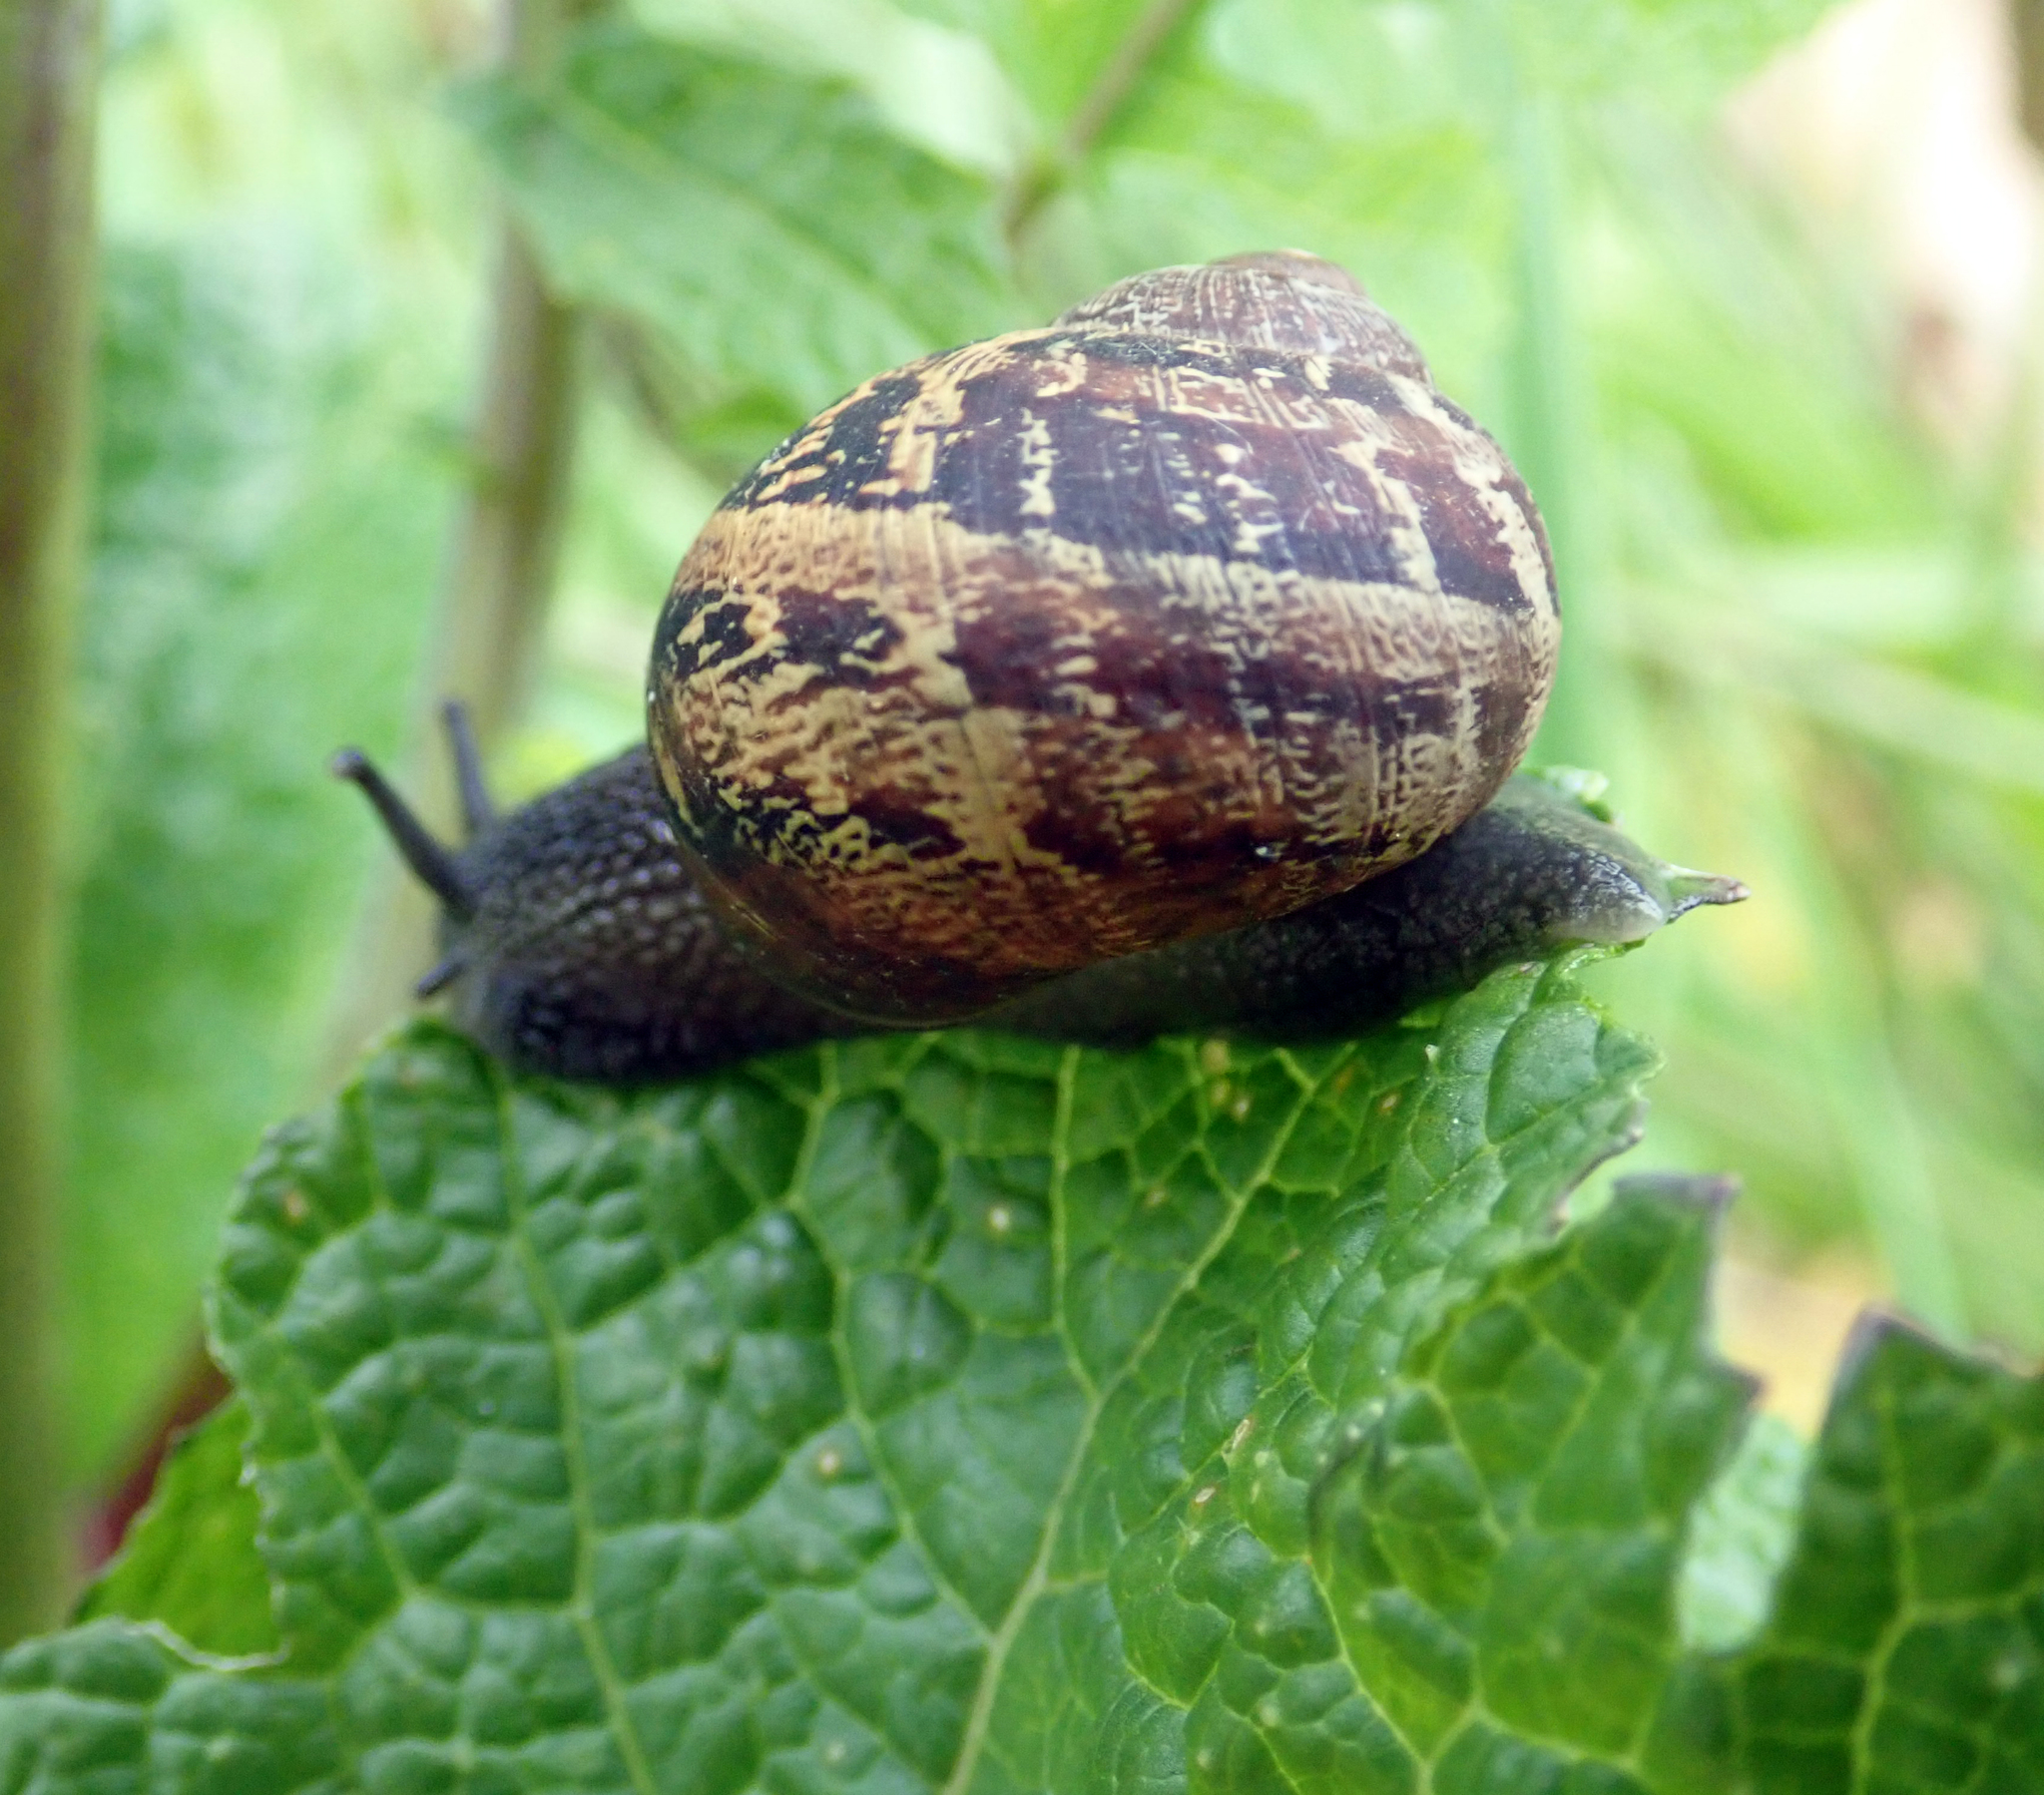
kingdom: Animalia
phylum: Mollusca
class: Gastropoda
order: Stylommatophora
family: Helicidae
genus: Cornu
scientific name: Cornu aspersum
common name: Brown garden snail
